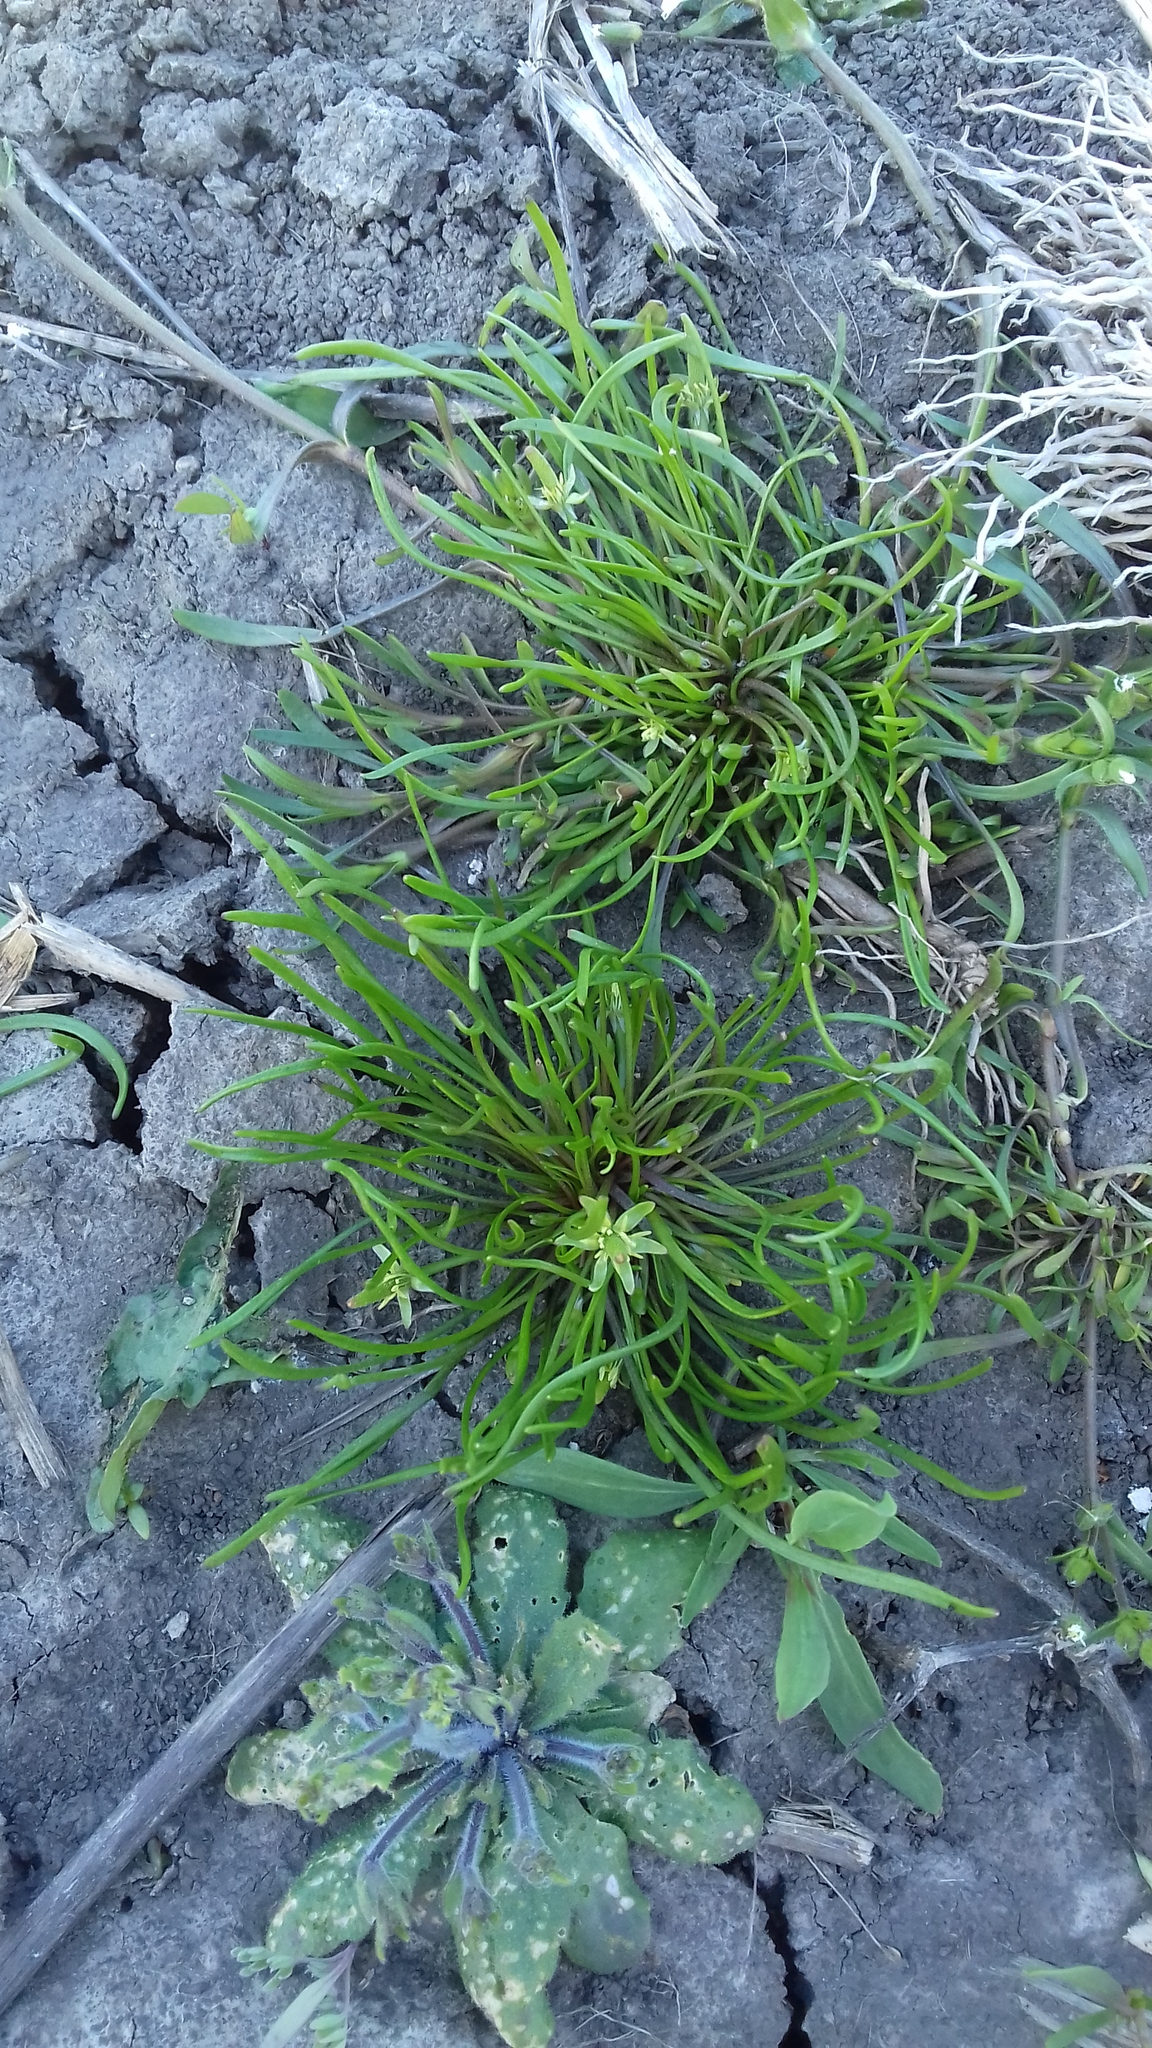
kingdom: Plantae
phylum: Tracheophyta
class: Magnoliopsida
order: Ranunculales
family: Ranunculaceae
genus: Myosurus
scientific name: Myosurus minimus
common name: Mousetail
